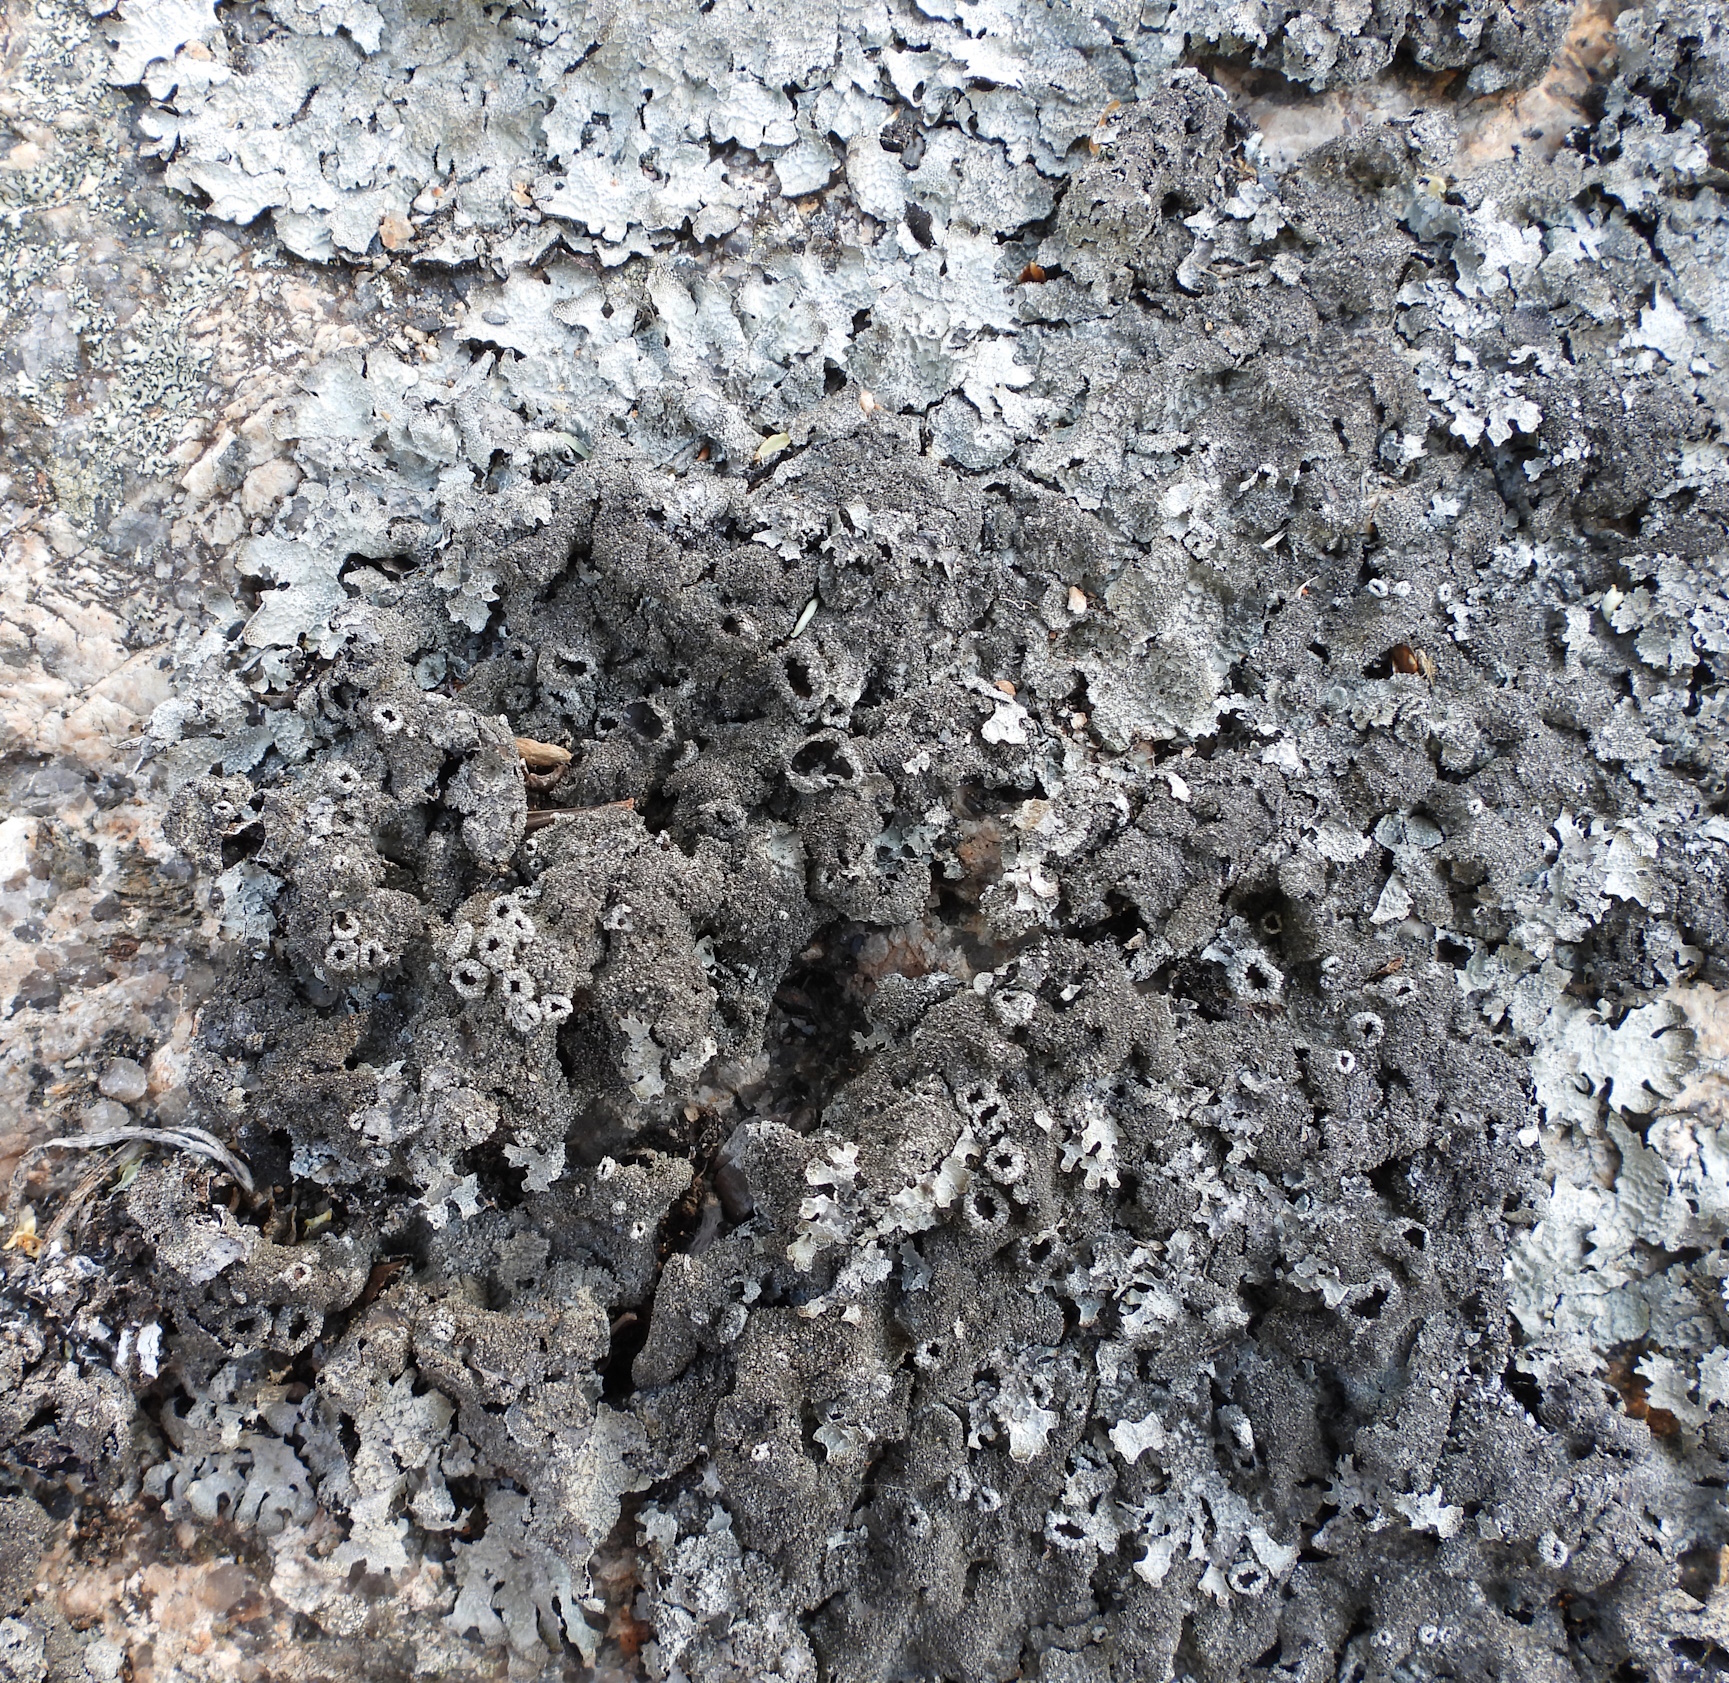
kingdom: Fungi
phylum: Ascomycota
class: Lecanoromycetes
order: Lecanorales
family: Parmeliaceae
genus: Parmelia
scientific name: Parmelia saxatilis
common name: Salted shield lichen
